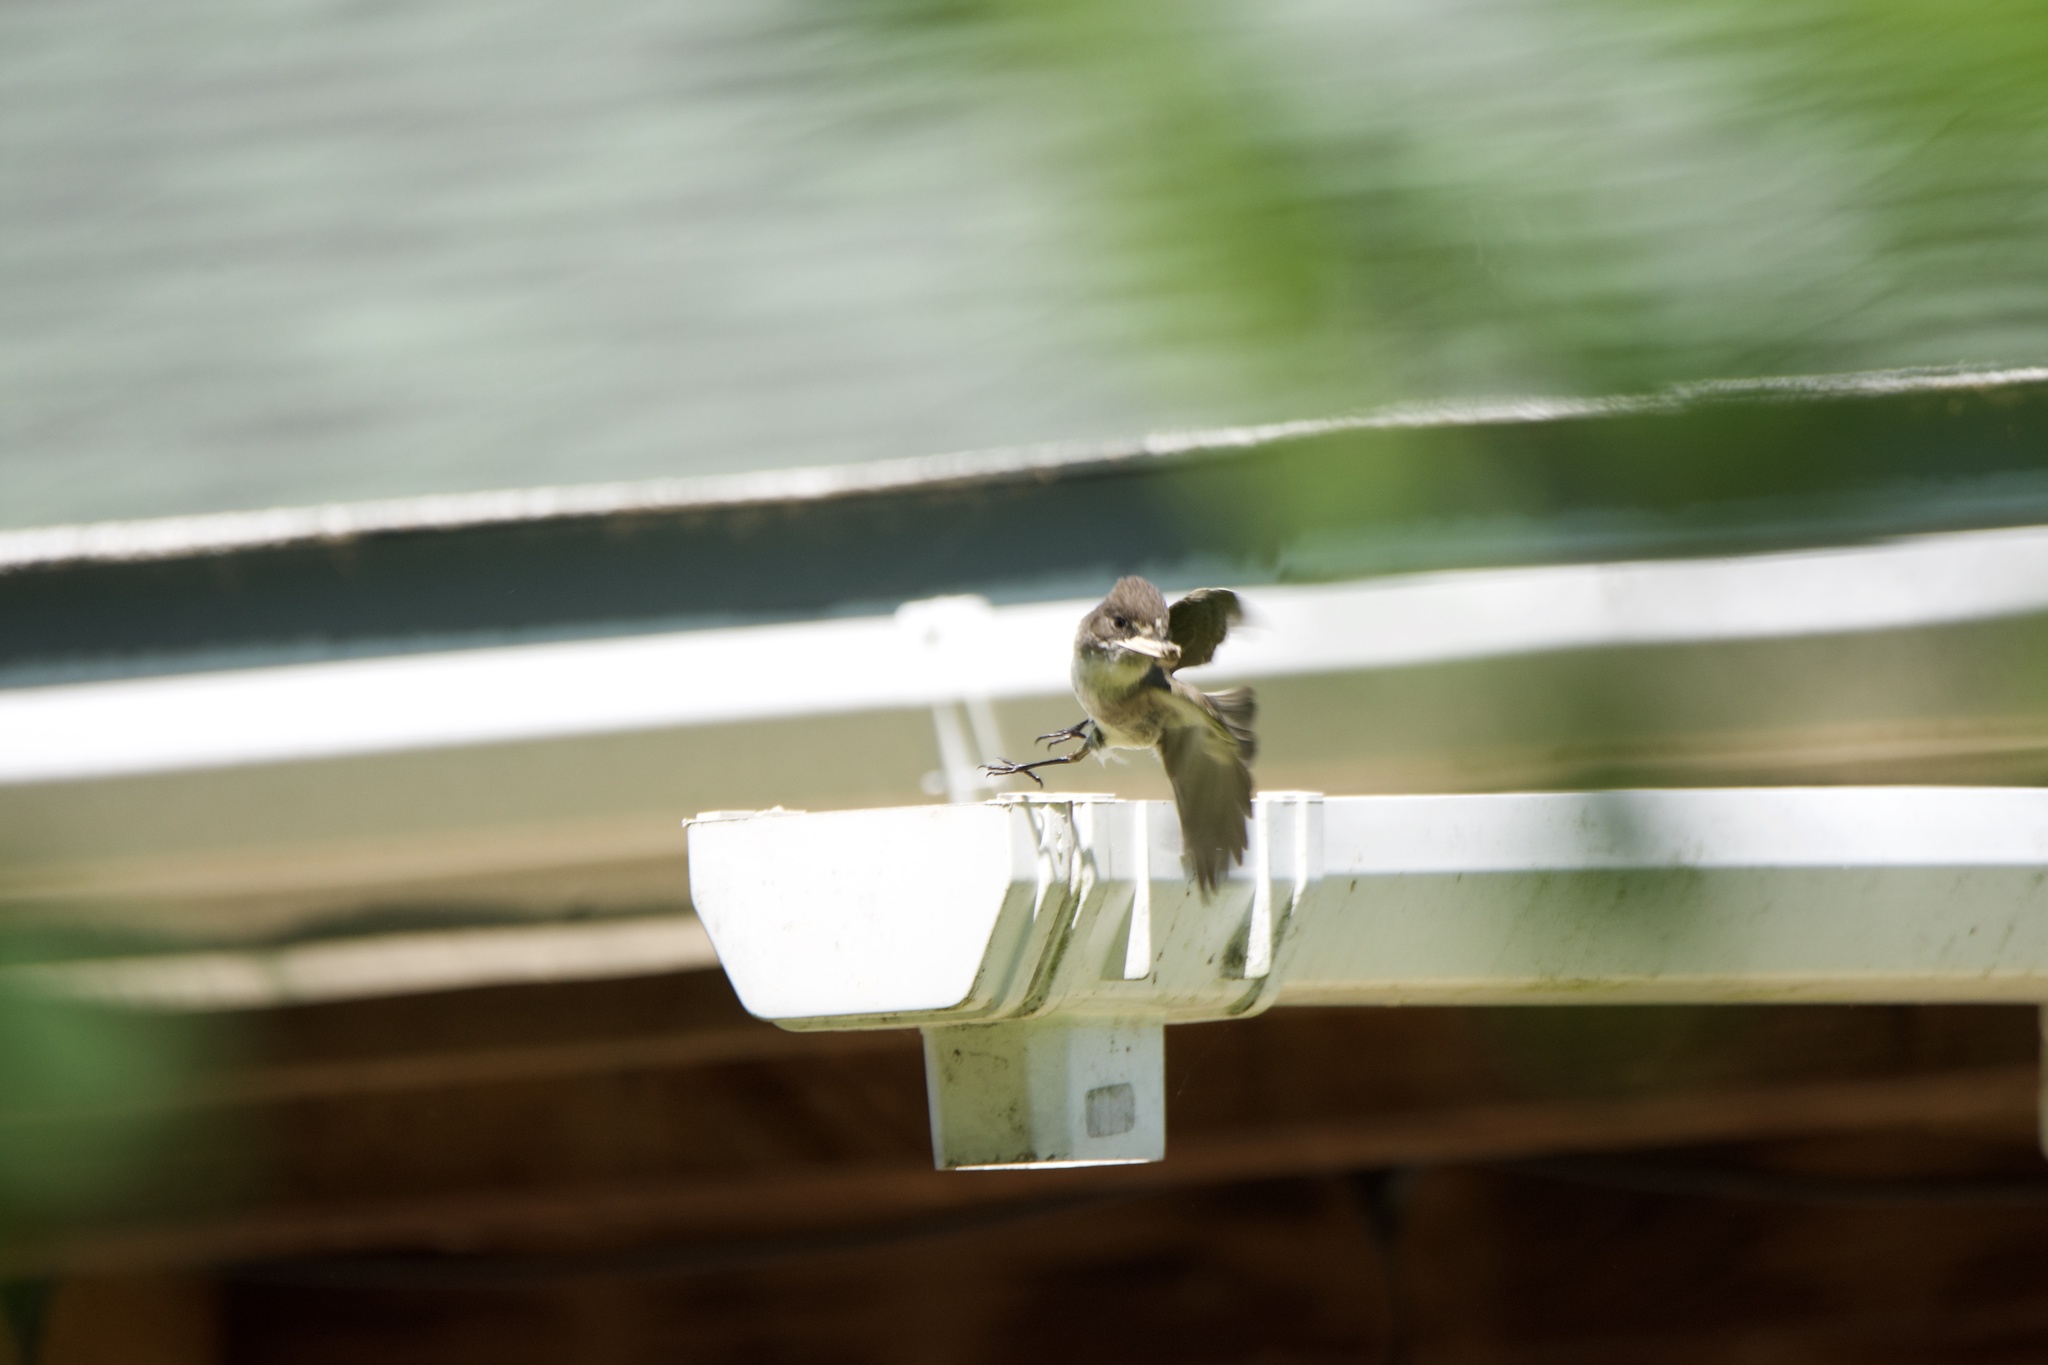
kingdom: Animalia
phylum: Chordata
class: Aves
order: Passeriformes
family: Tyrannidae
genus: Sayornis
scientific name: Sayornis phoebe
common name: Eastern phoebe
